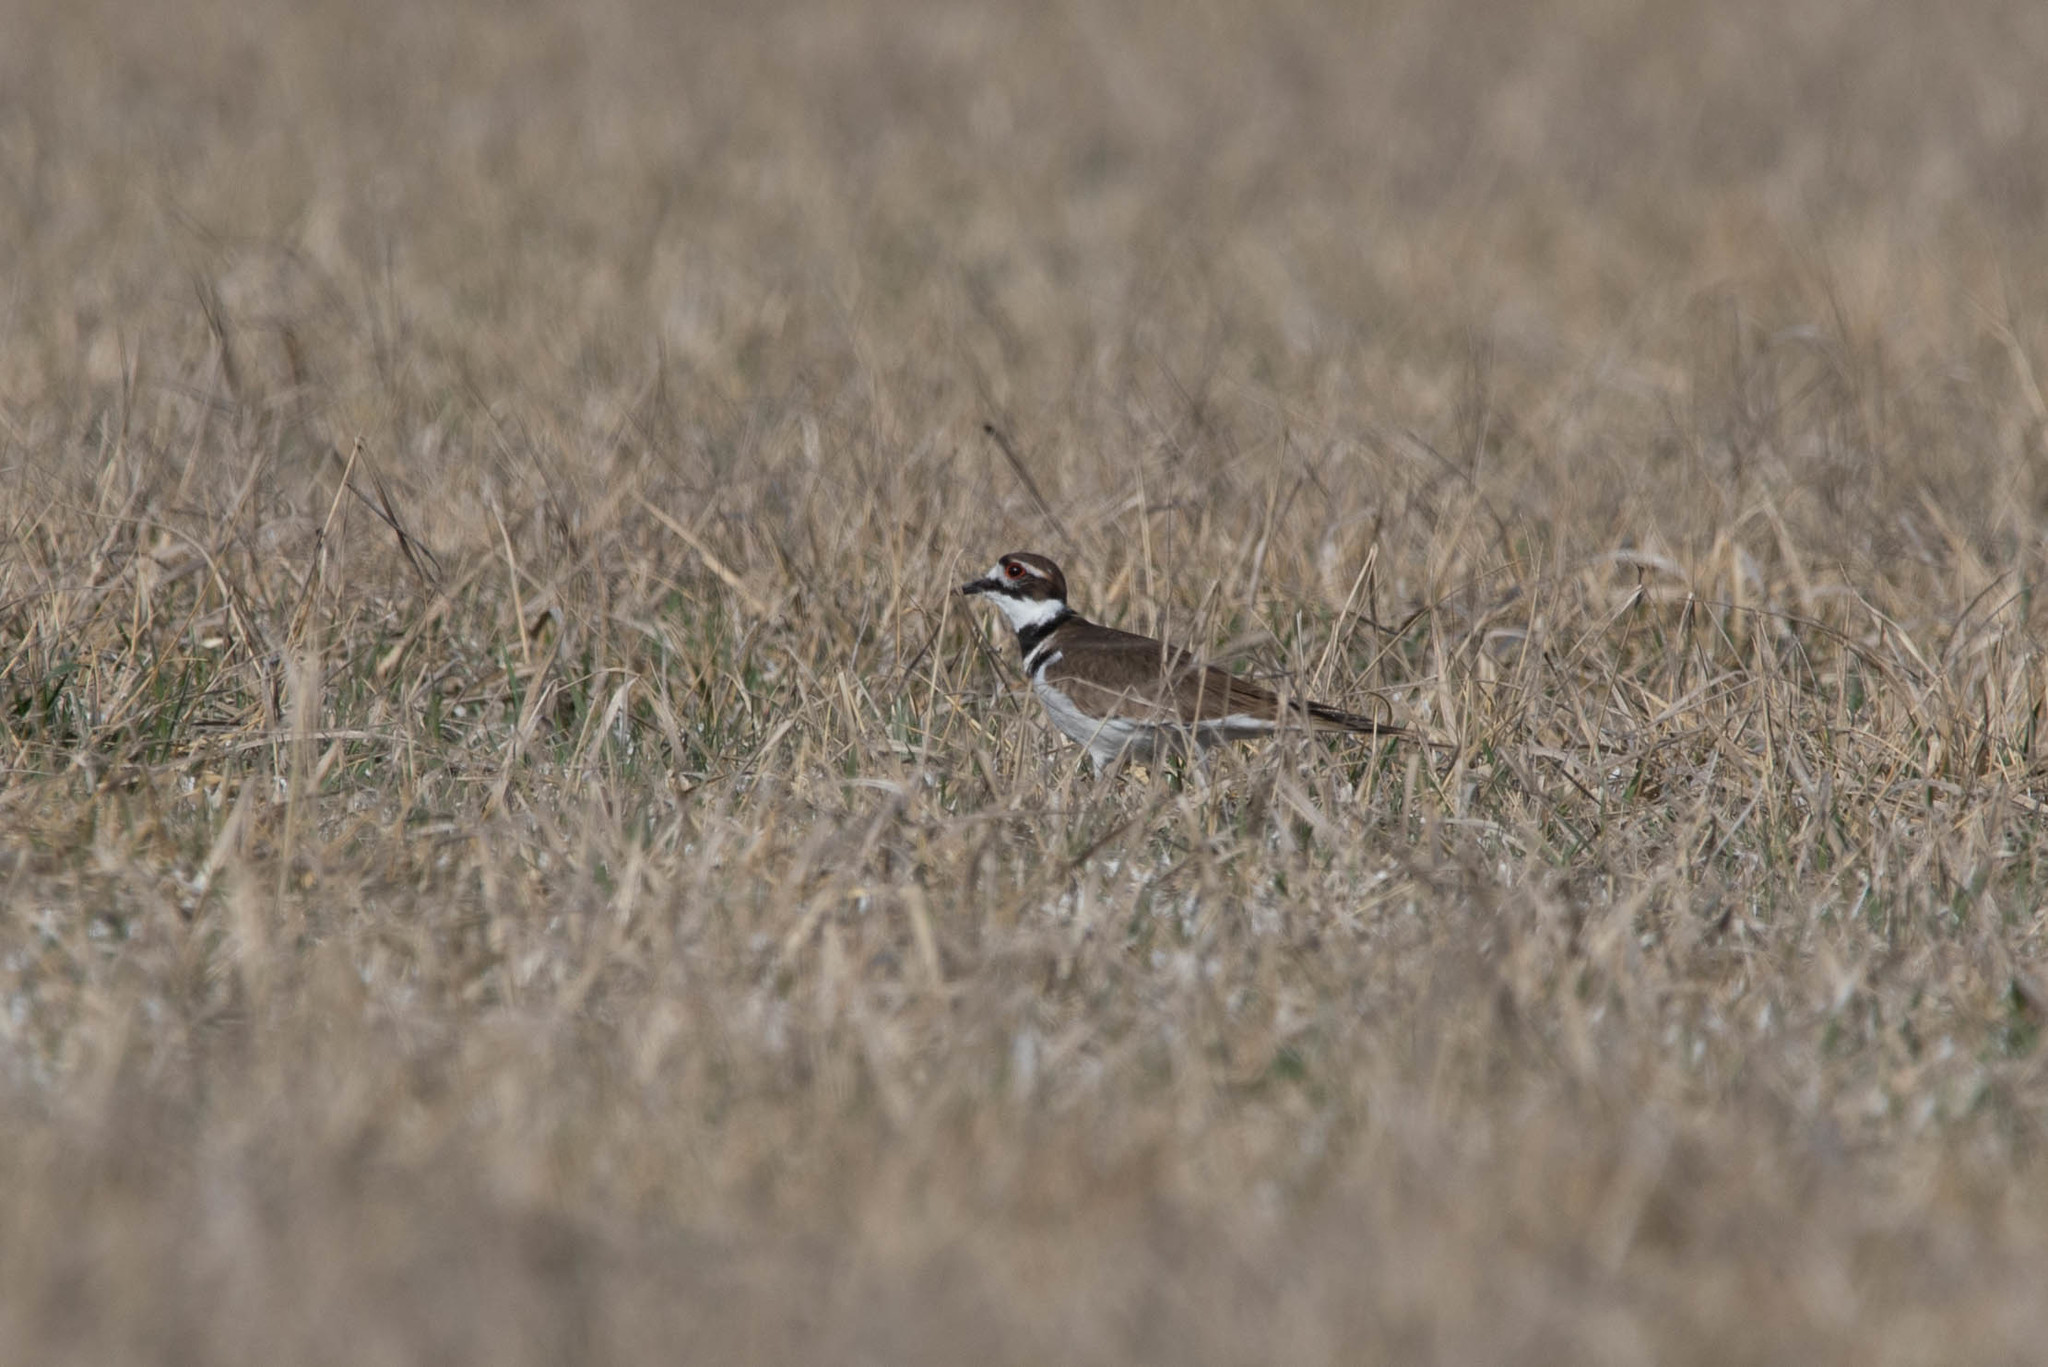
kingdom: Animalia
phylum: Chordata
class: Aves
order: Charadriiformes
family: Charadriidae
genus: Charadrius
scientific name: Charadrius vociferus
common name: Killdeer
